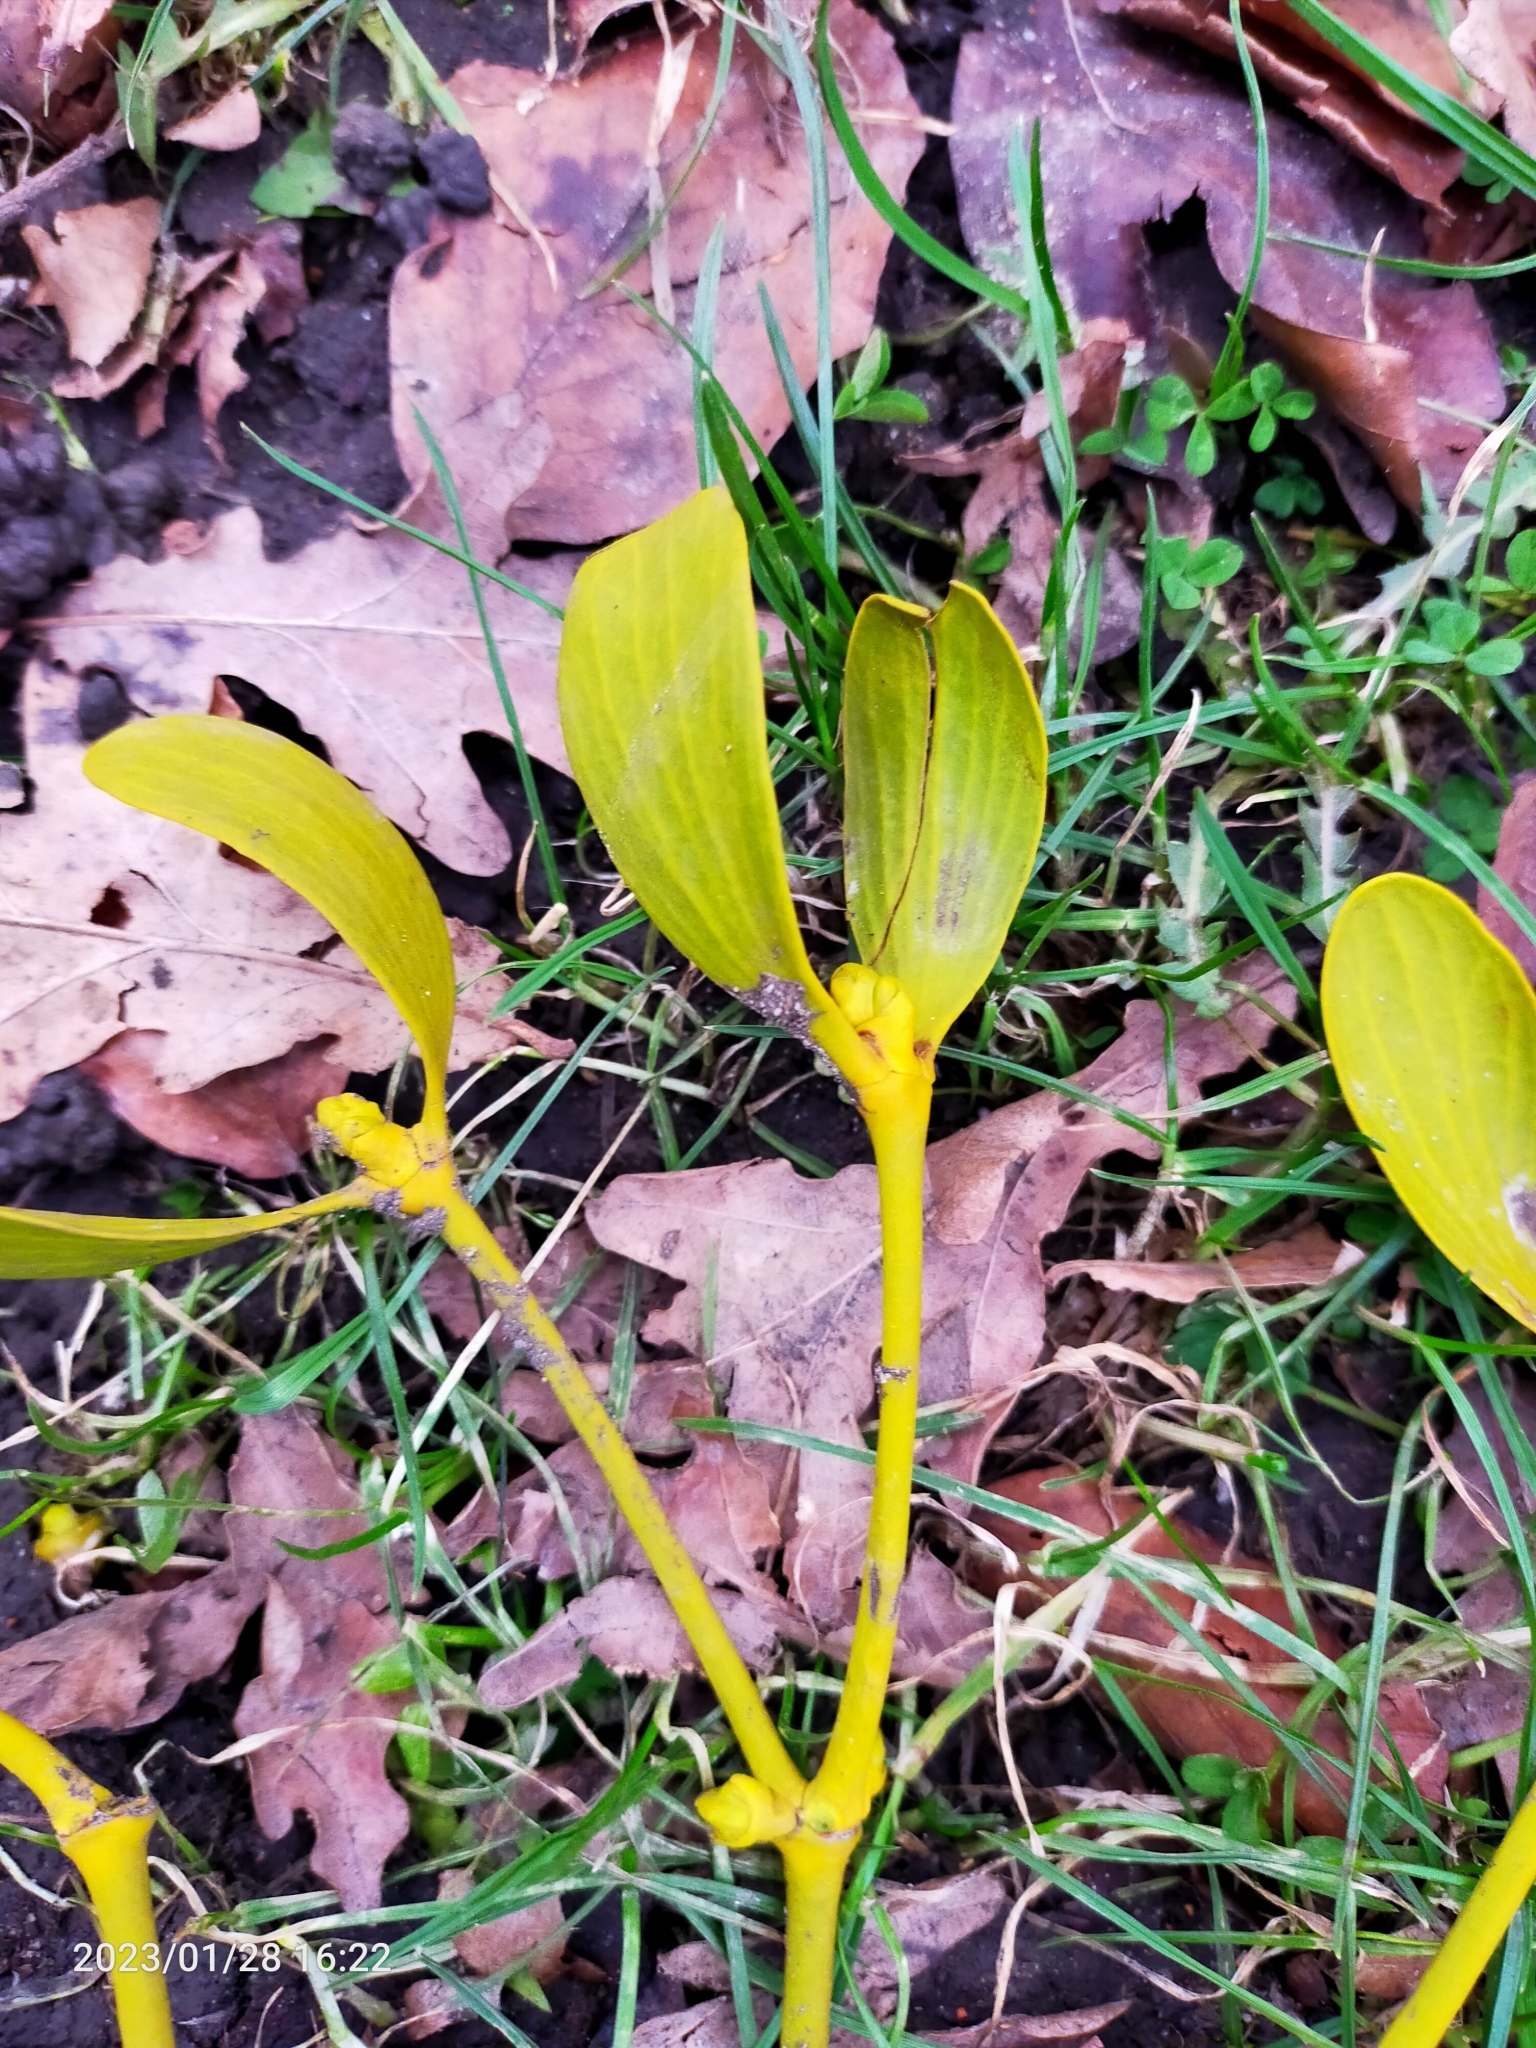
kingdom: Plantae
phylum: Tracheophyta
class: Magnoliopsida
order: Santalales
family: Viscaceae
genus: Viscum
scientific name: Viscum album
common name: Mistletoe
